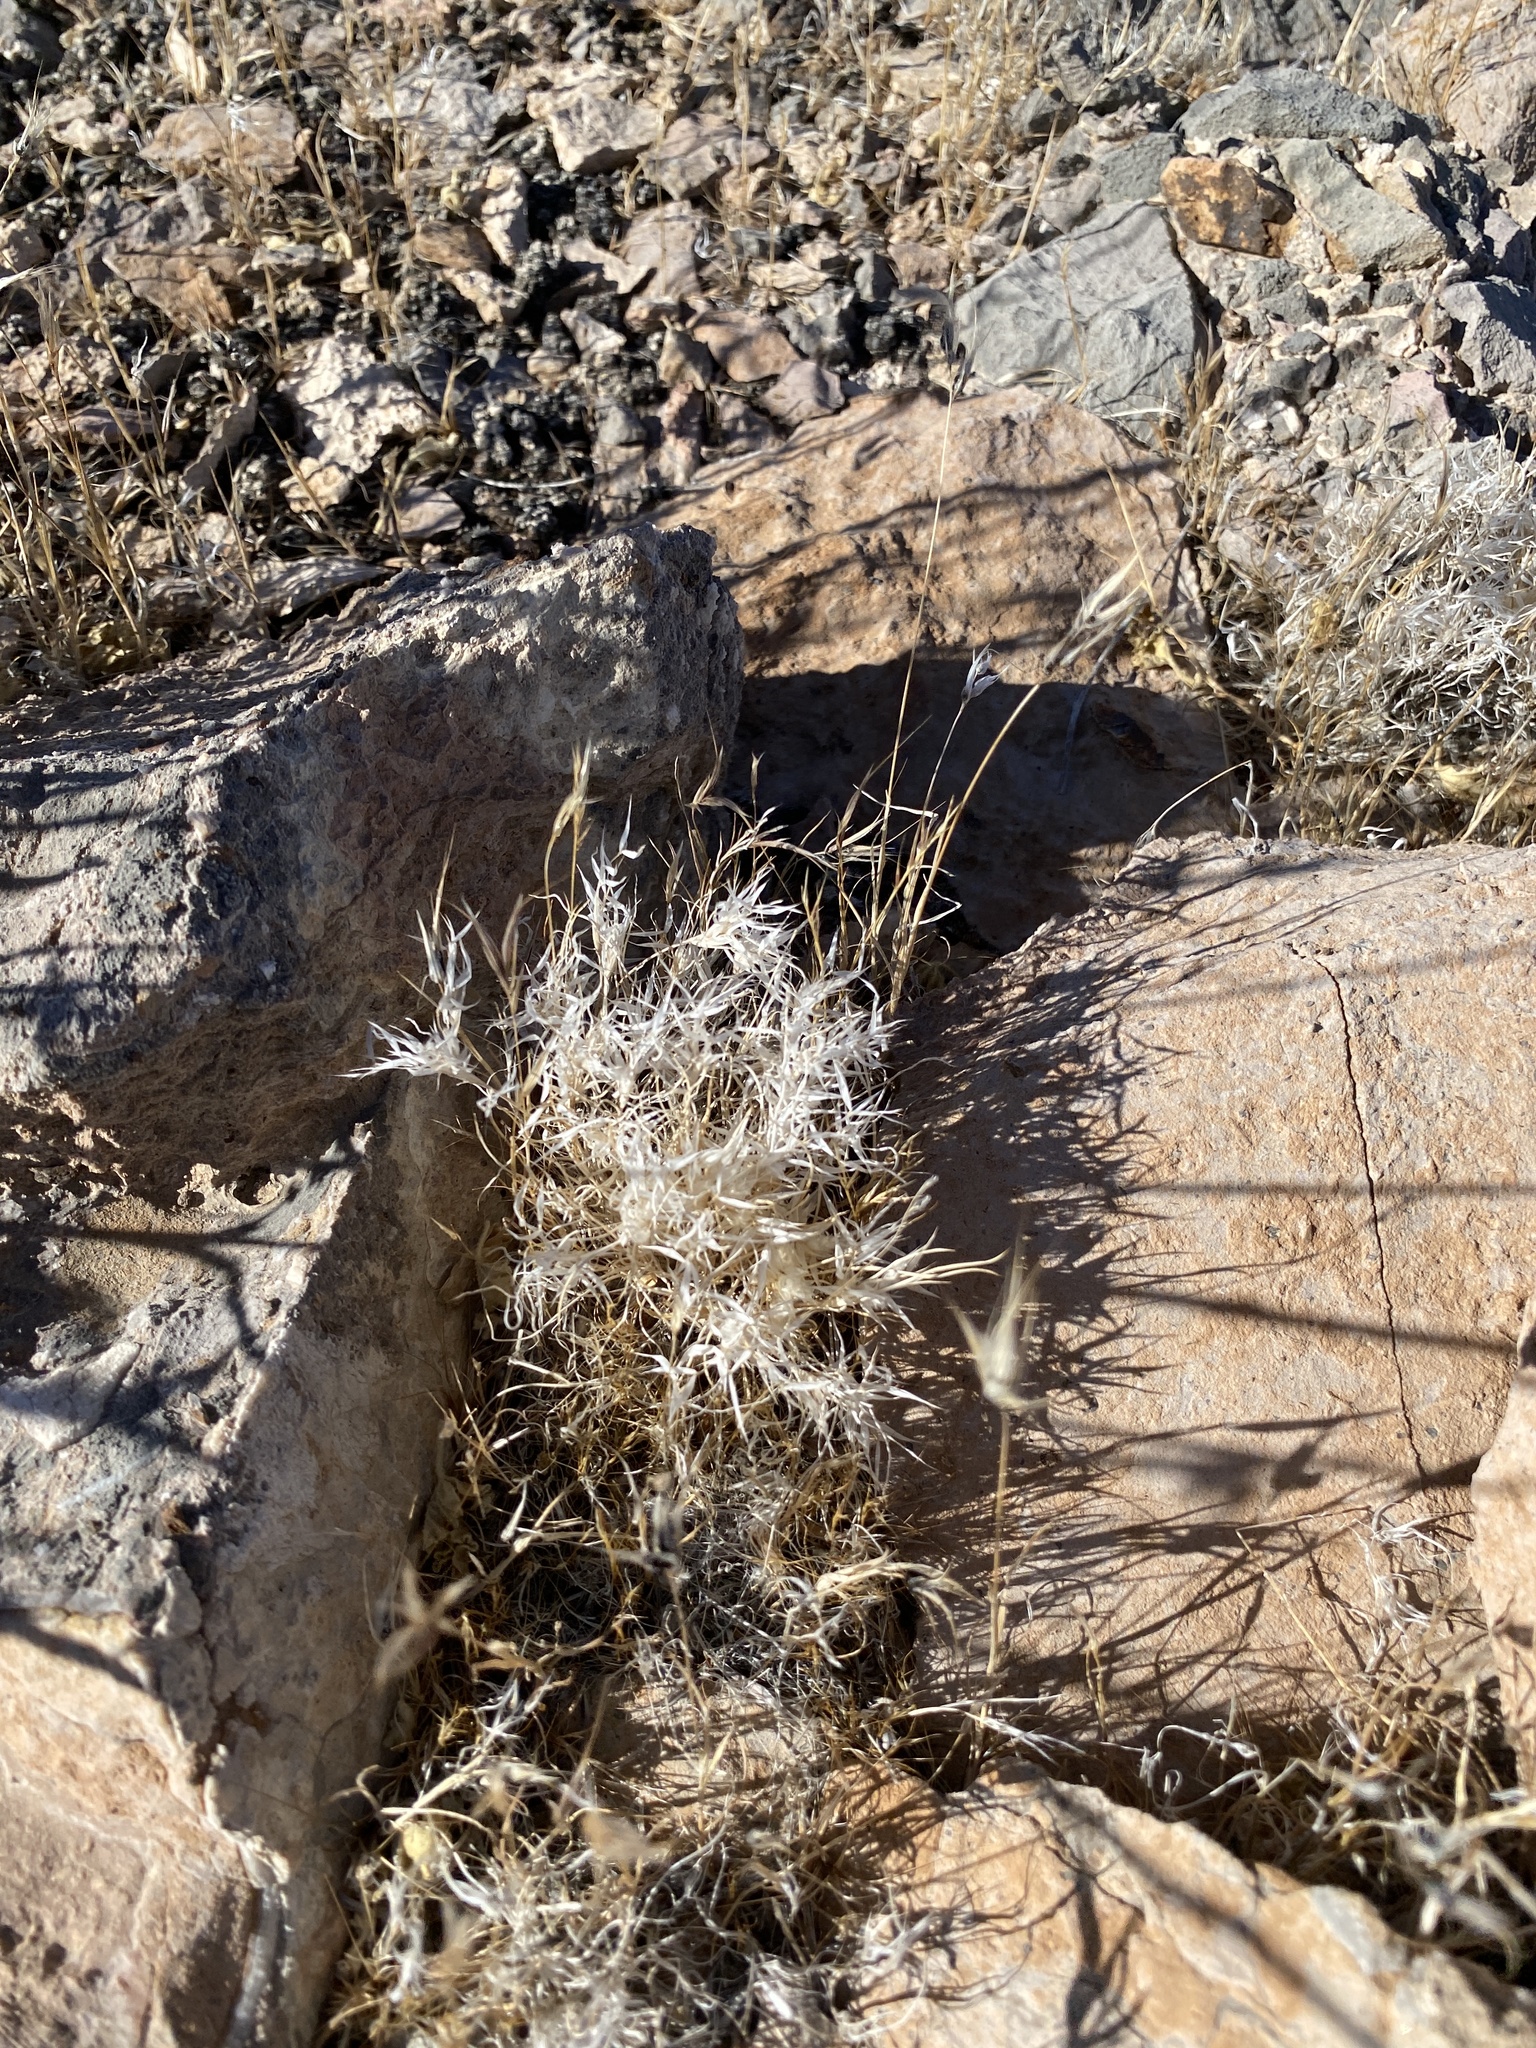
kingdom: Plantae
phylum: Tracheophyta
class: Liliopsida
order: Poales
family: Poaceae
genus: Dasyochloa
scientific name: Dasyochloa pulchella
